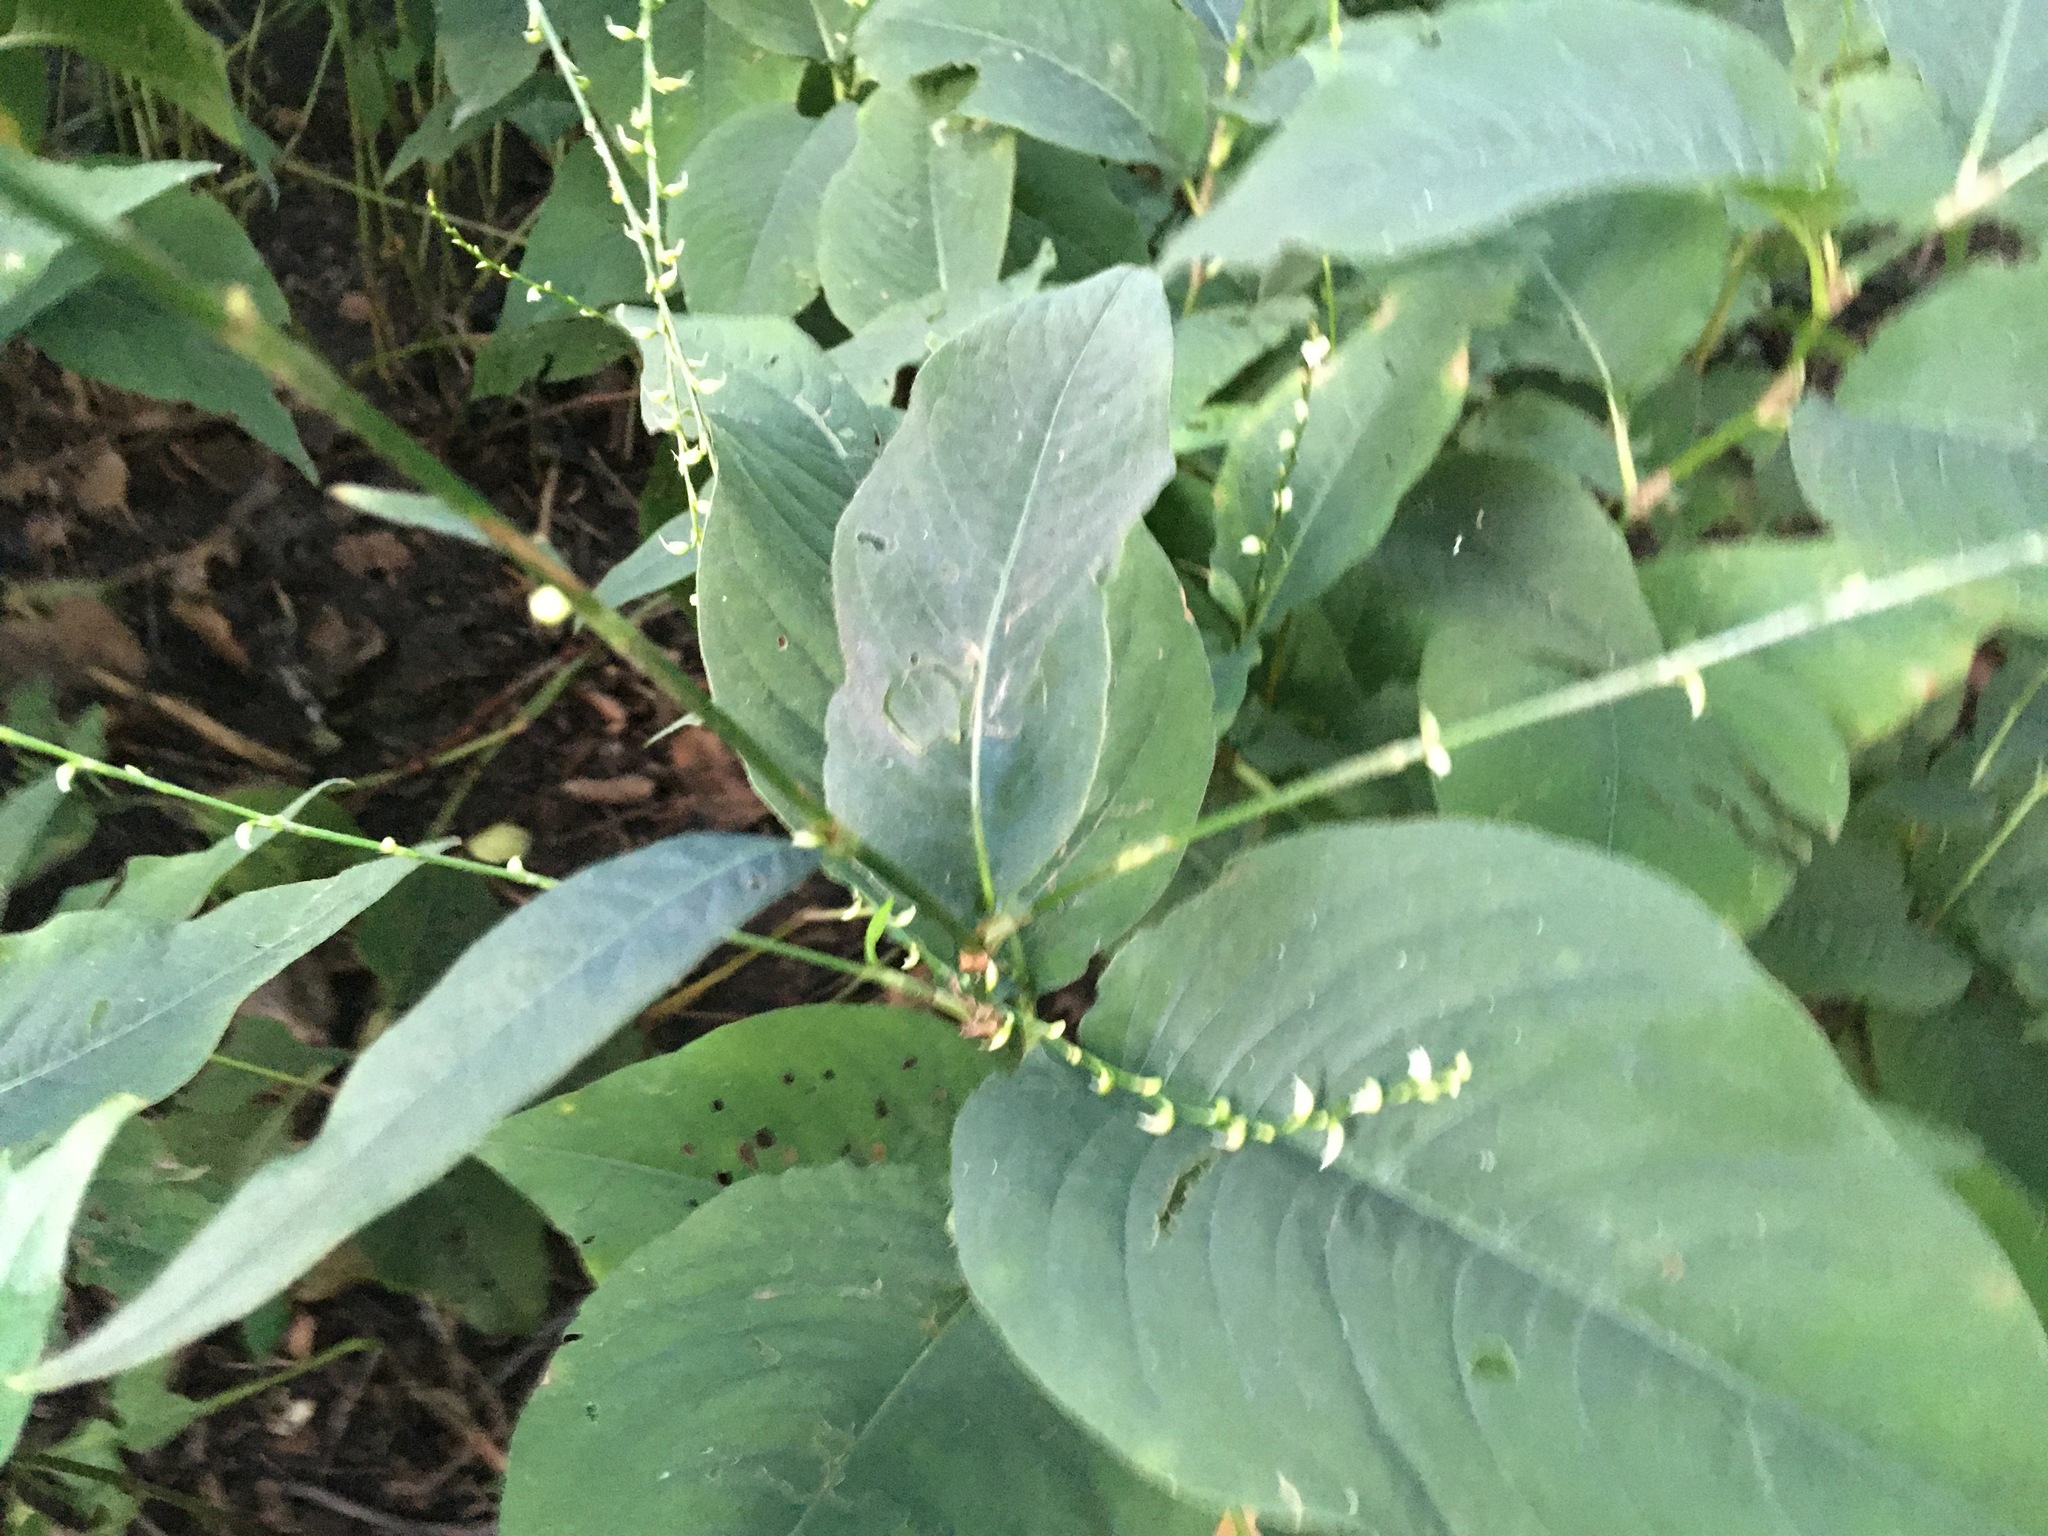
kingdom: Plantae
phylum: Tracheophyta
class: Magnoliopsida
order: Caryophyllales
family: Polygonaceae
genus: Persicaria
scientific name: Persicaria virginiana
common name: Jumpseed
